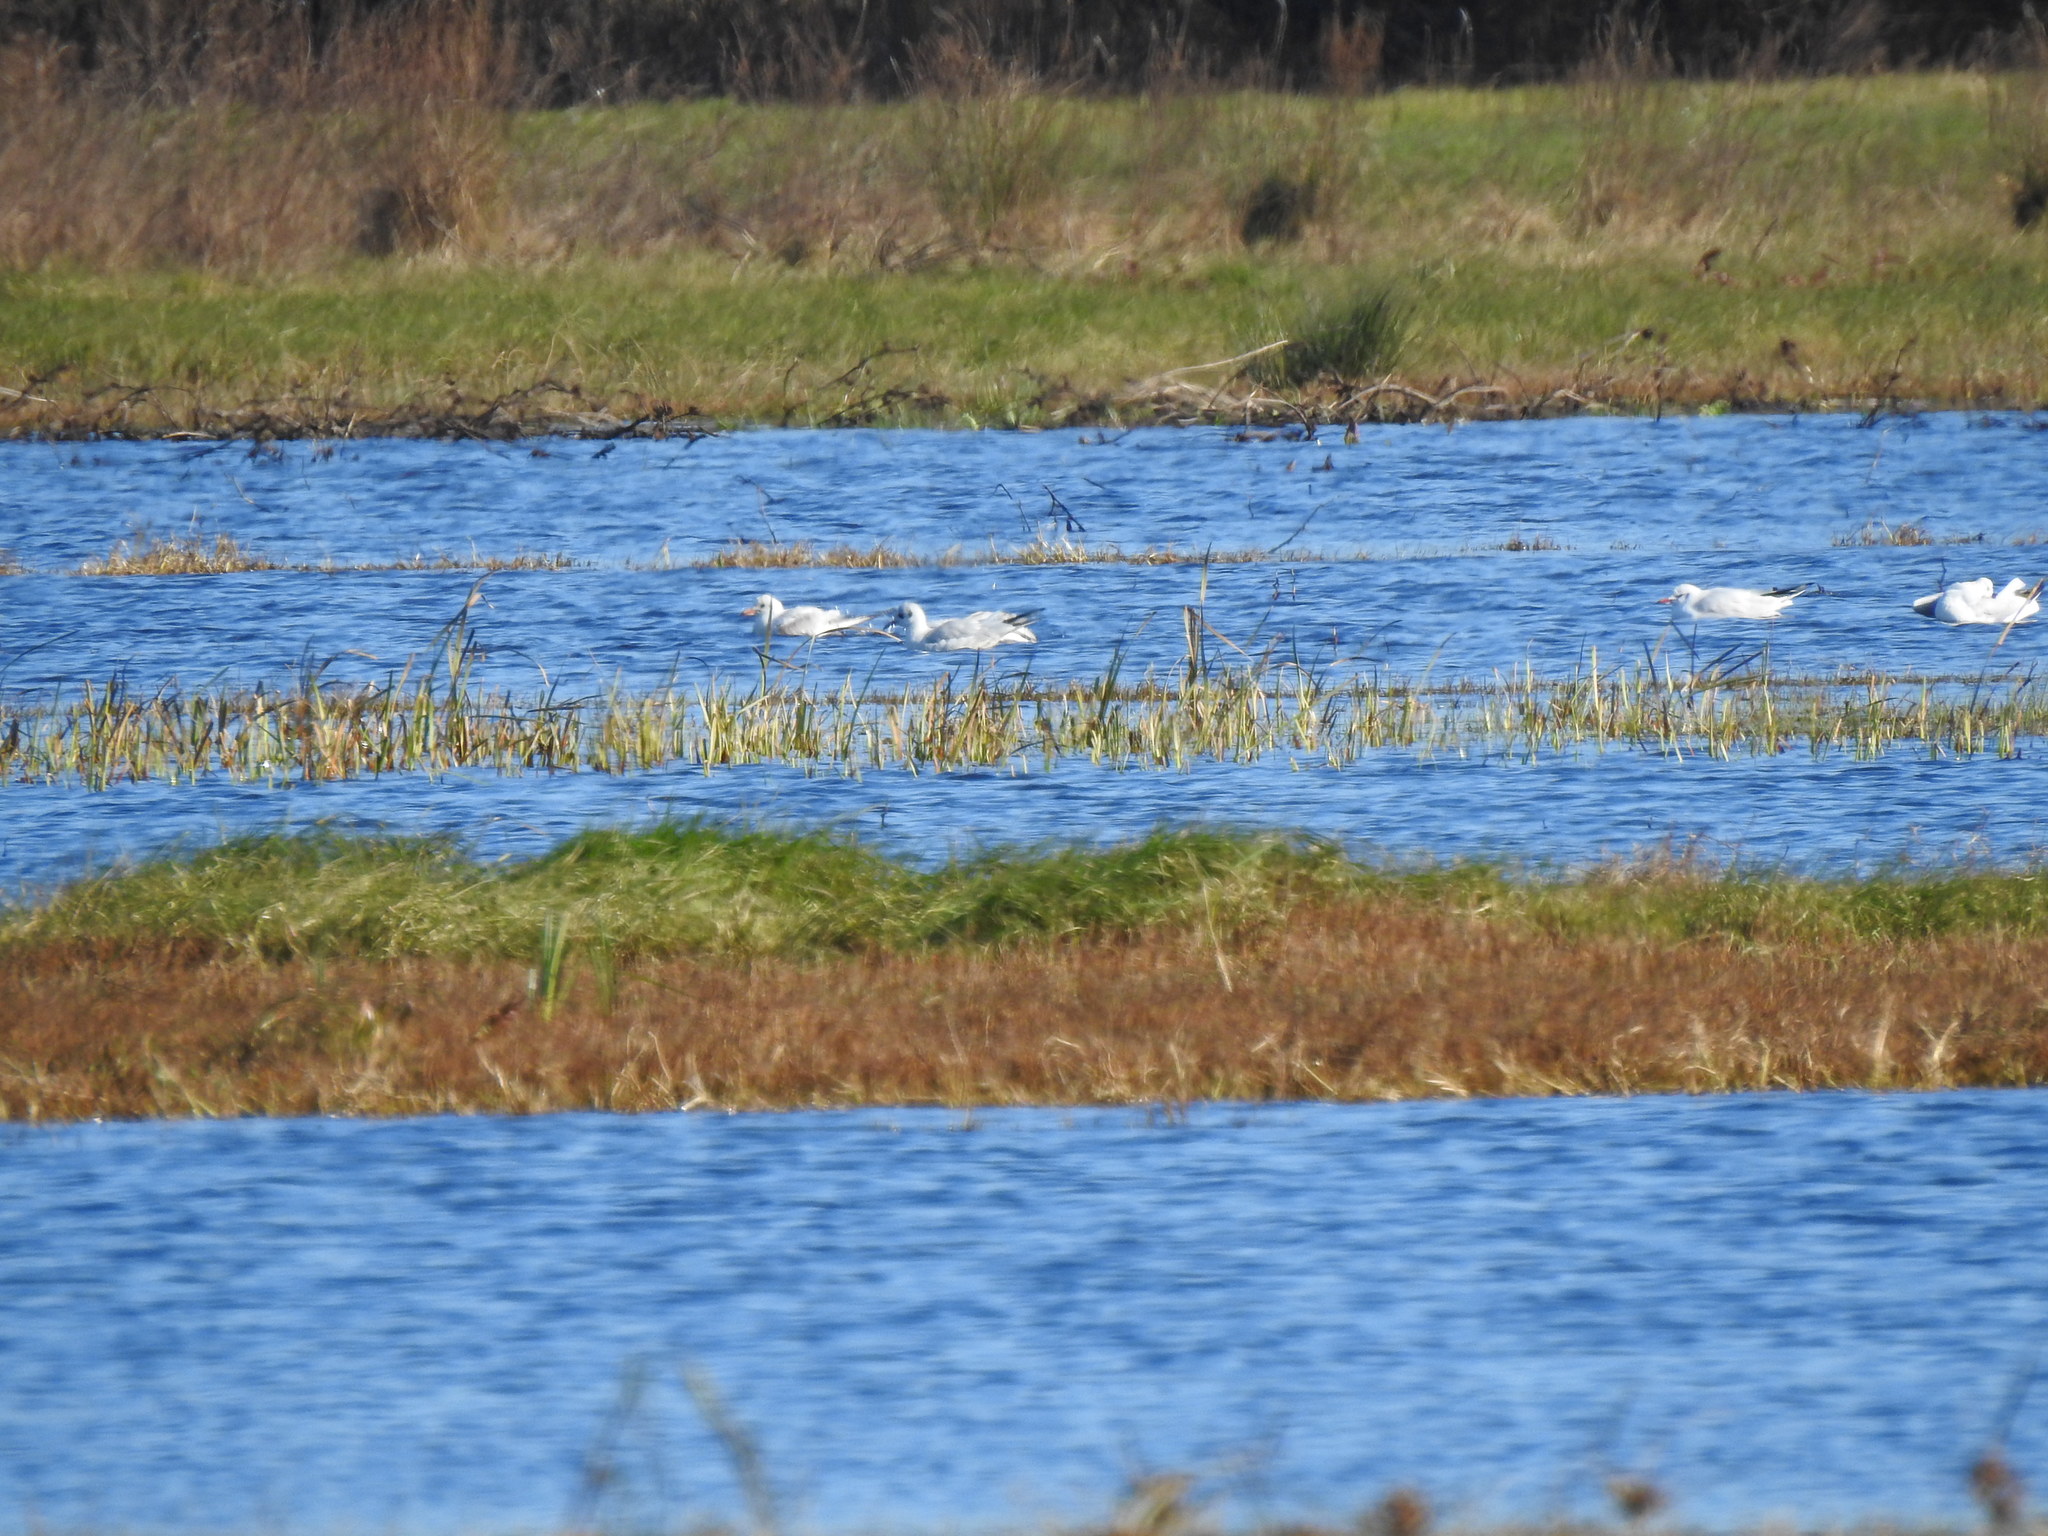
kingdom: Animalia
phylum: Chordata
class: Aves
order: Charadriiformes
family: Laridae
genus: Chroicocephalus
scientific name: Chroicocephalus ridibundus
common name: Black-headed gull
